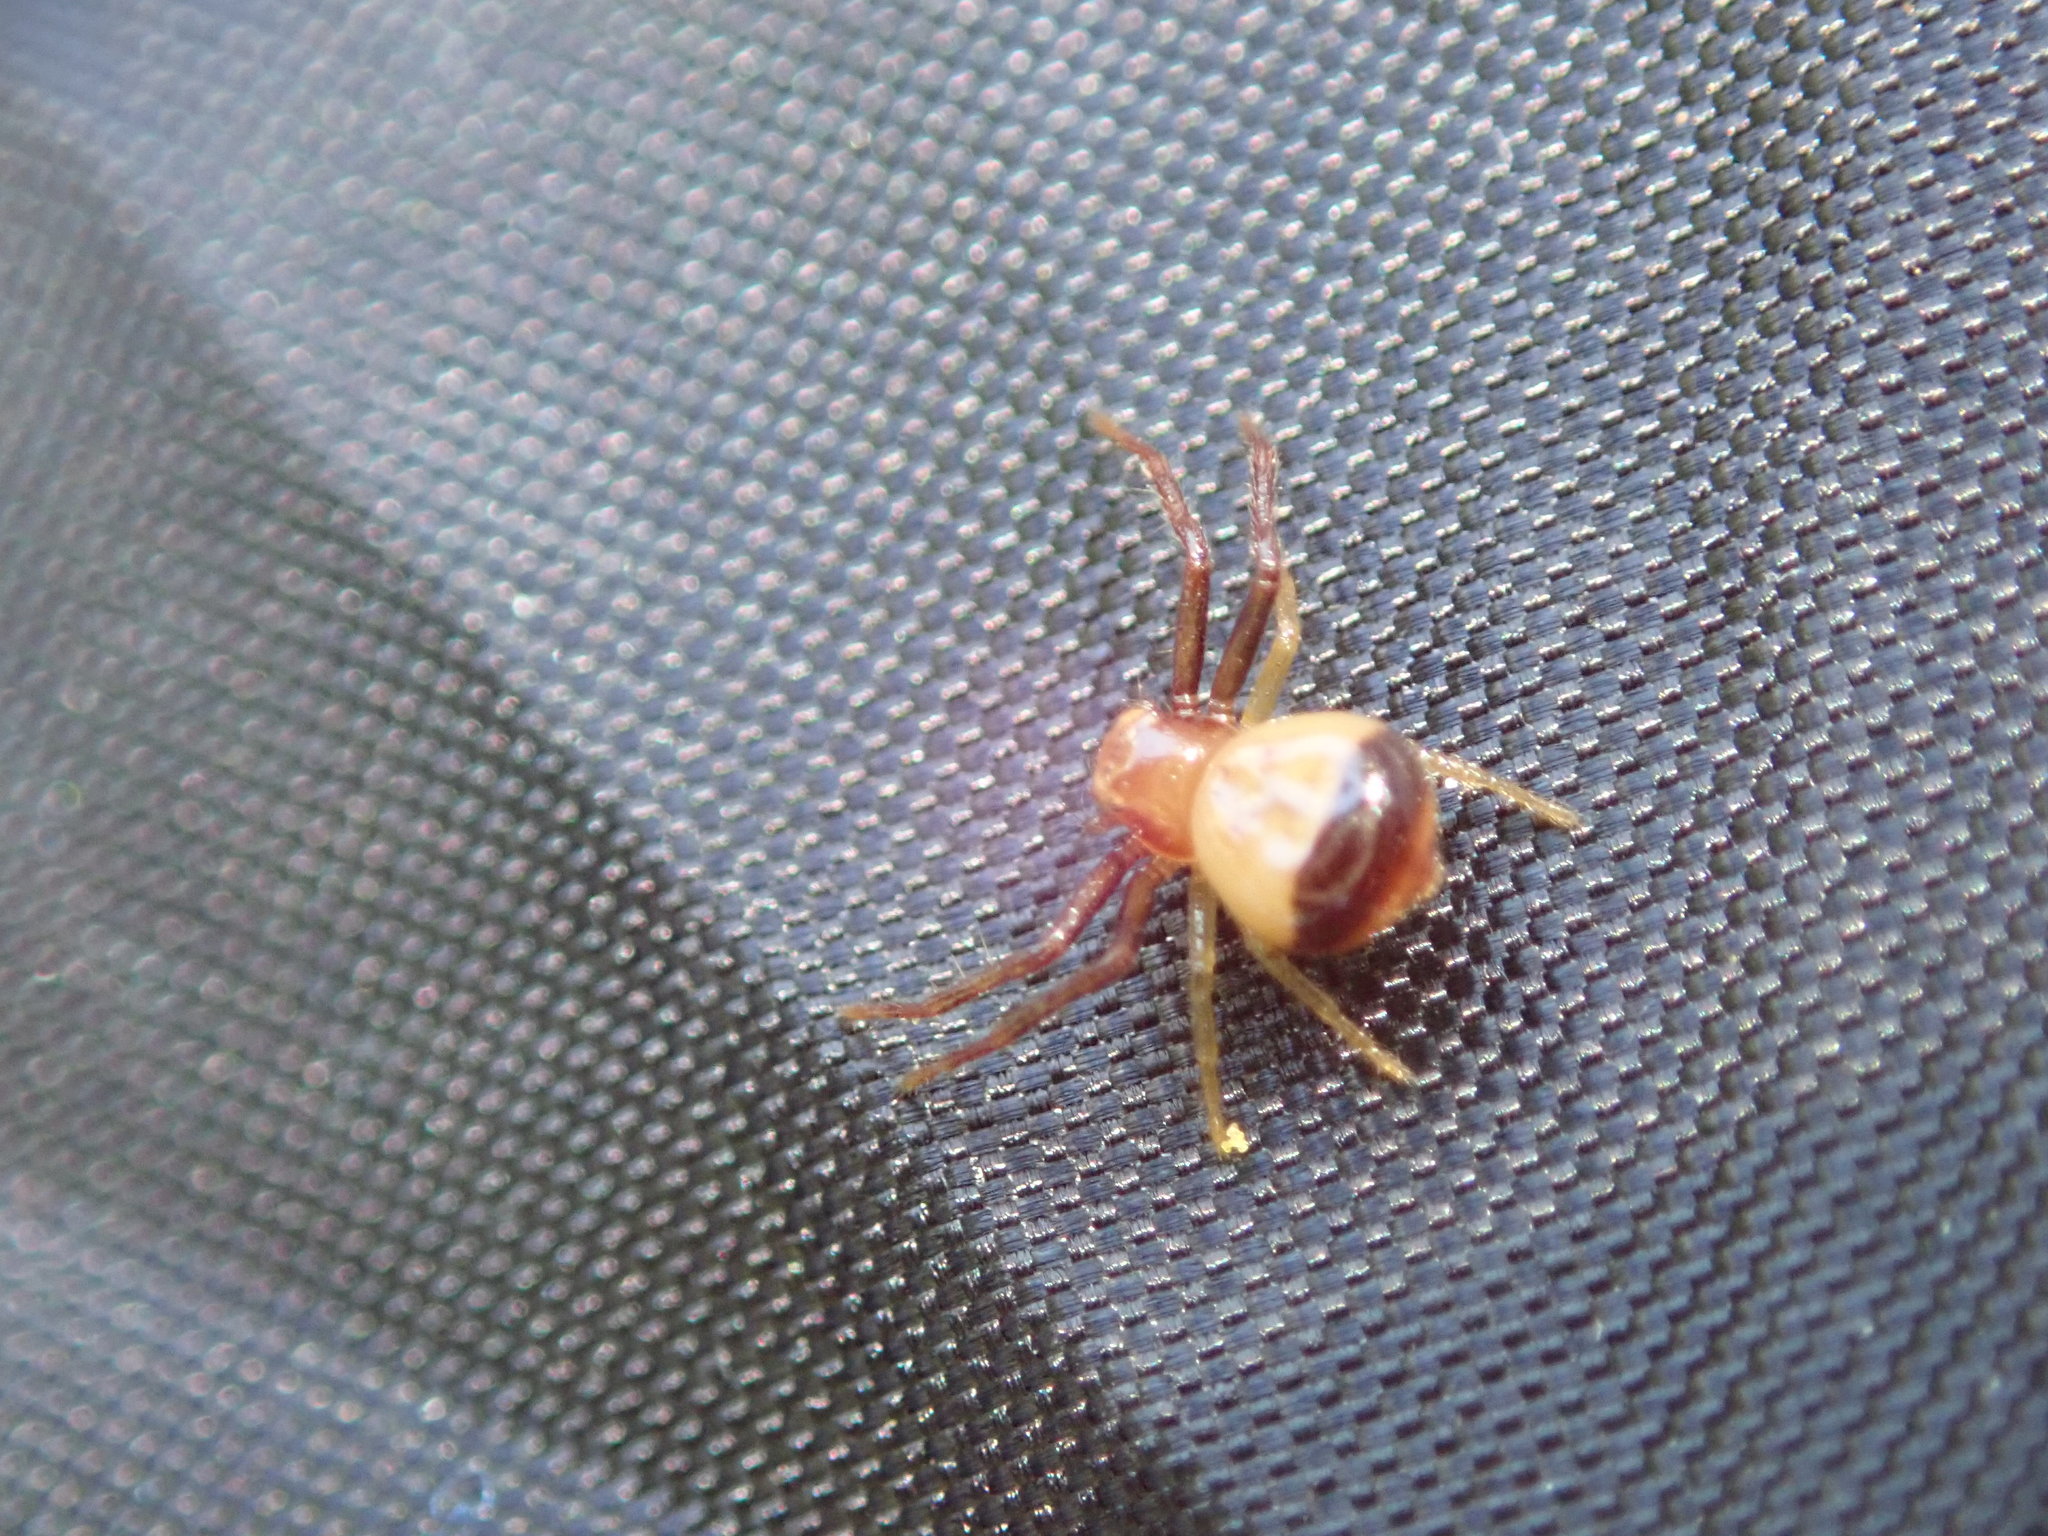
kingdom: Animalia
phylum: Arthropoda
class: Arachnida
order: Araneae
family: Thomisidae
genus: Synema
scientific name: Synema parvulum
